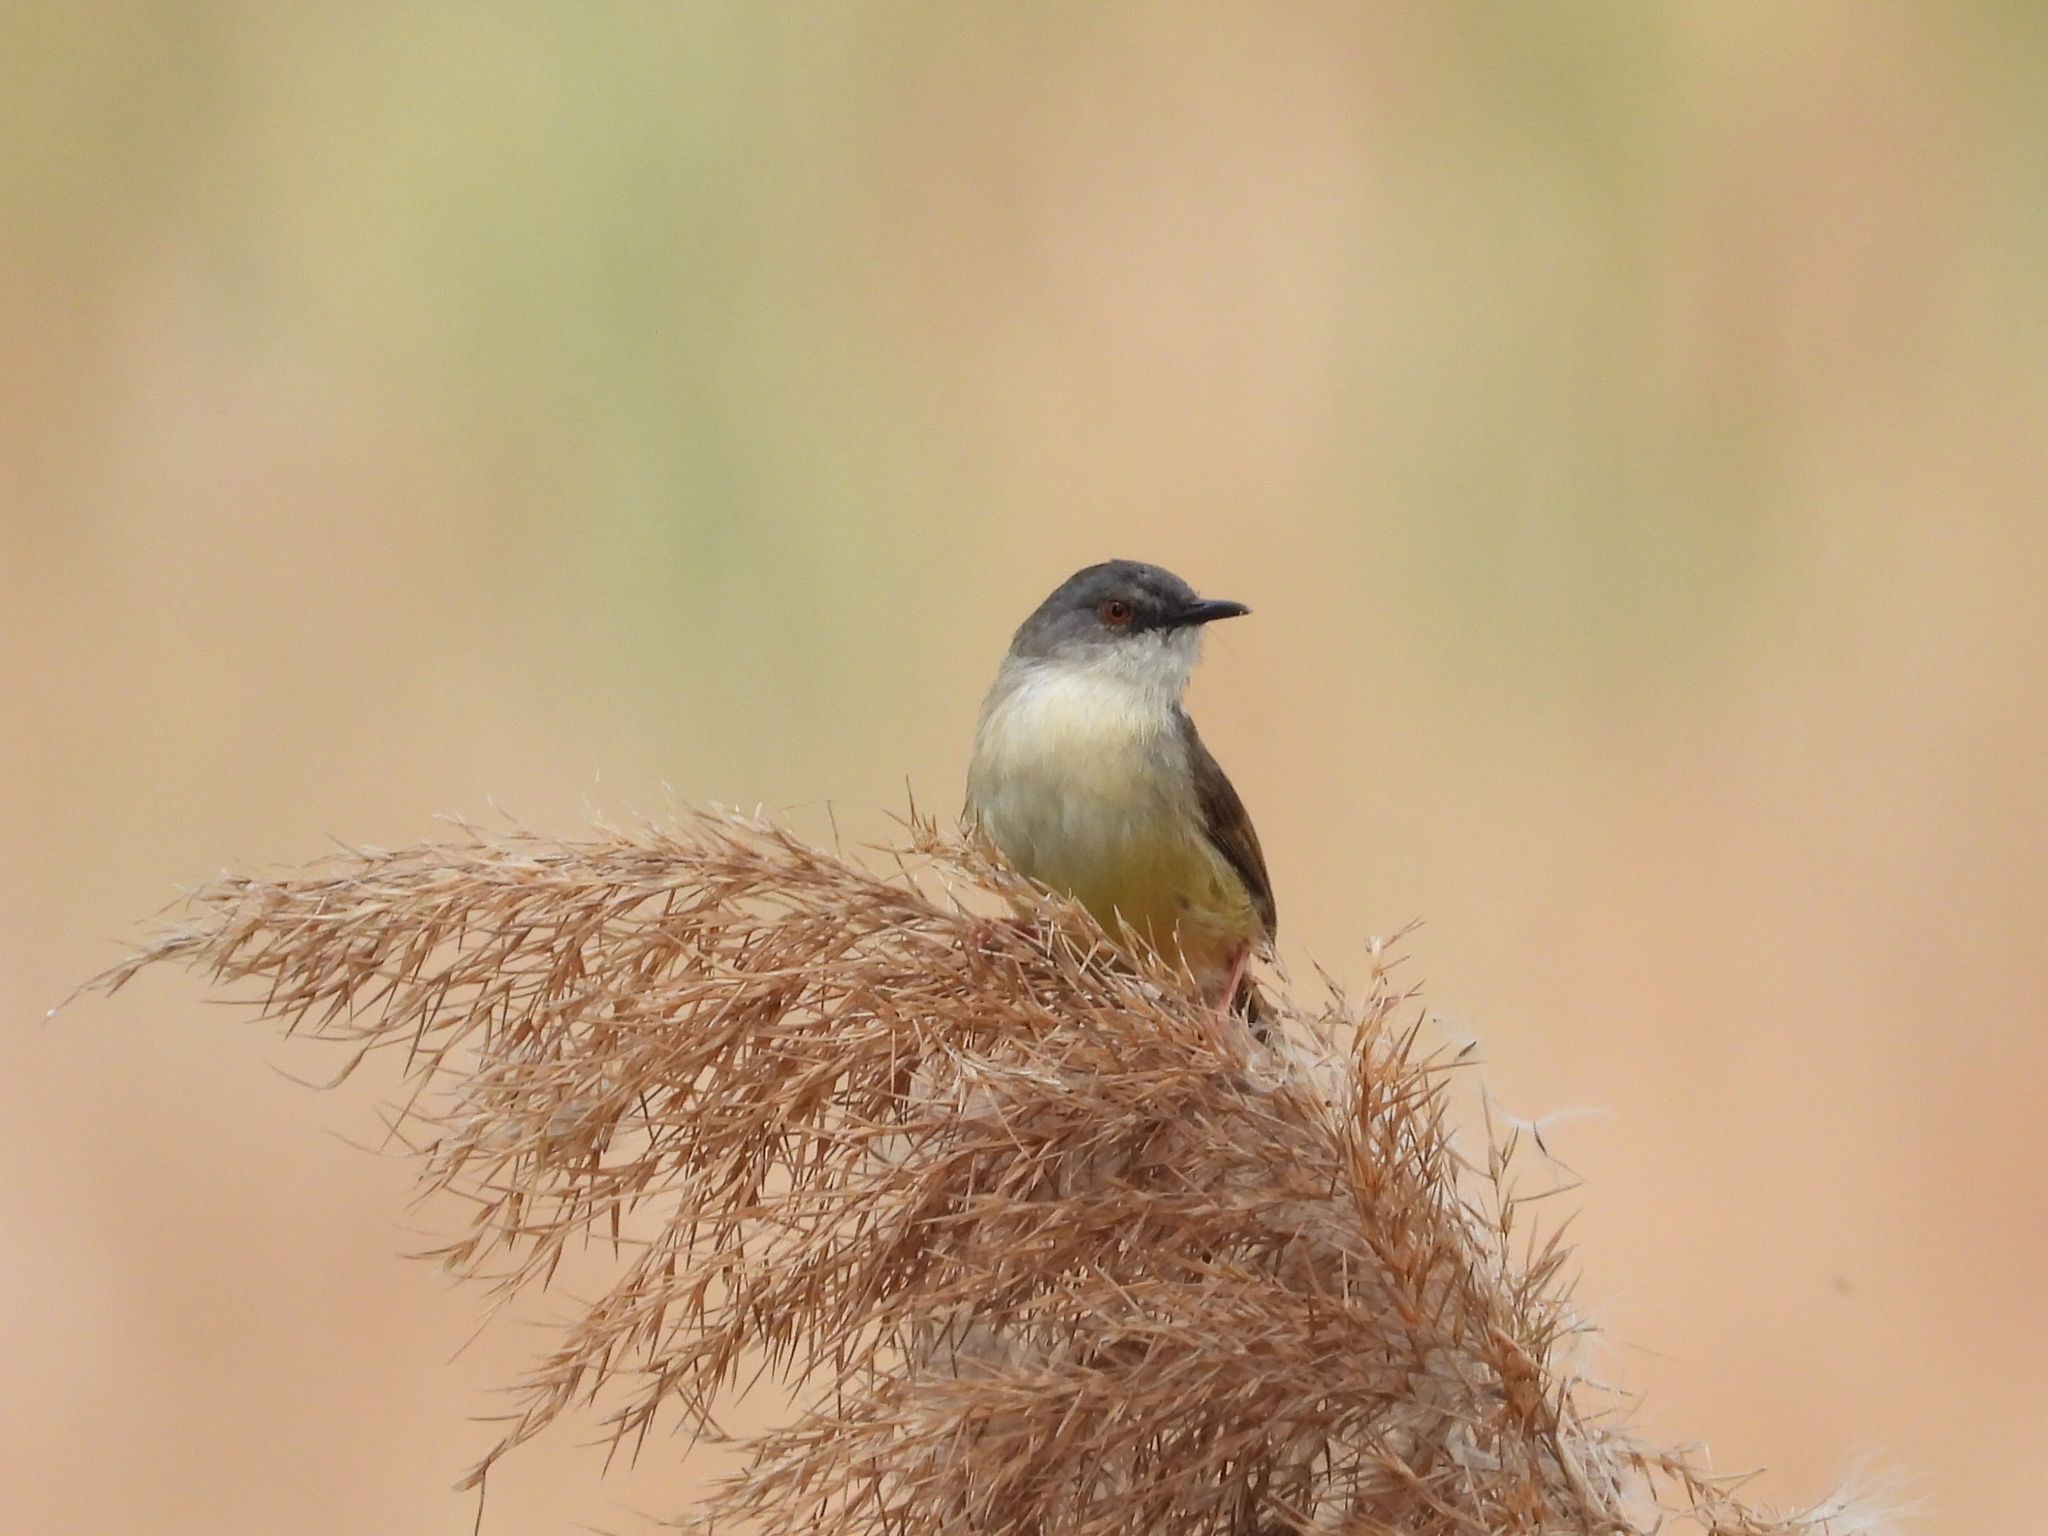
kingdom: Animalia
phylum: Chordata
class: Aves
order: Passeriformes
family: Cisticolidae
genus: Prinia
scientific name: Prinia flaviventris
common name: Yellow-bellied prinia
